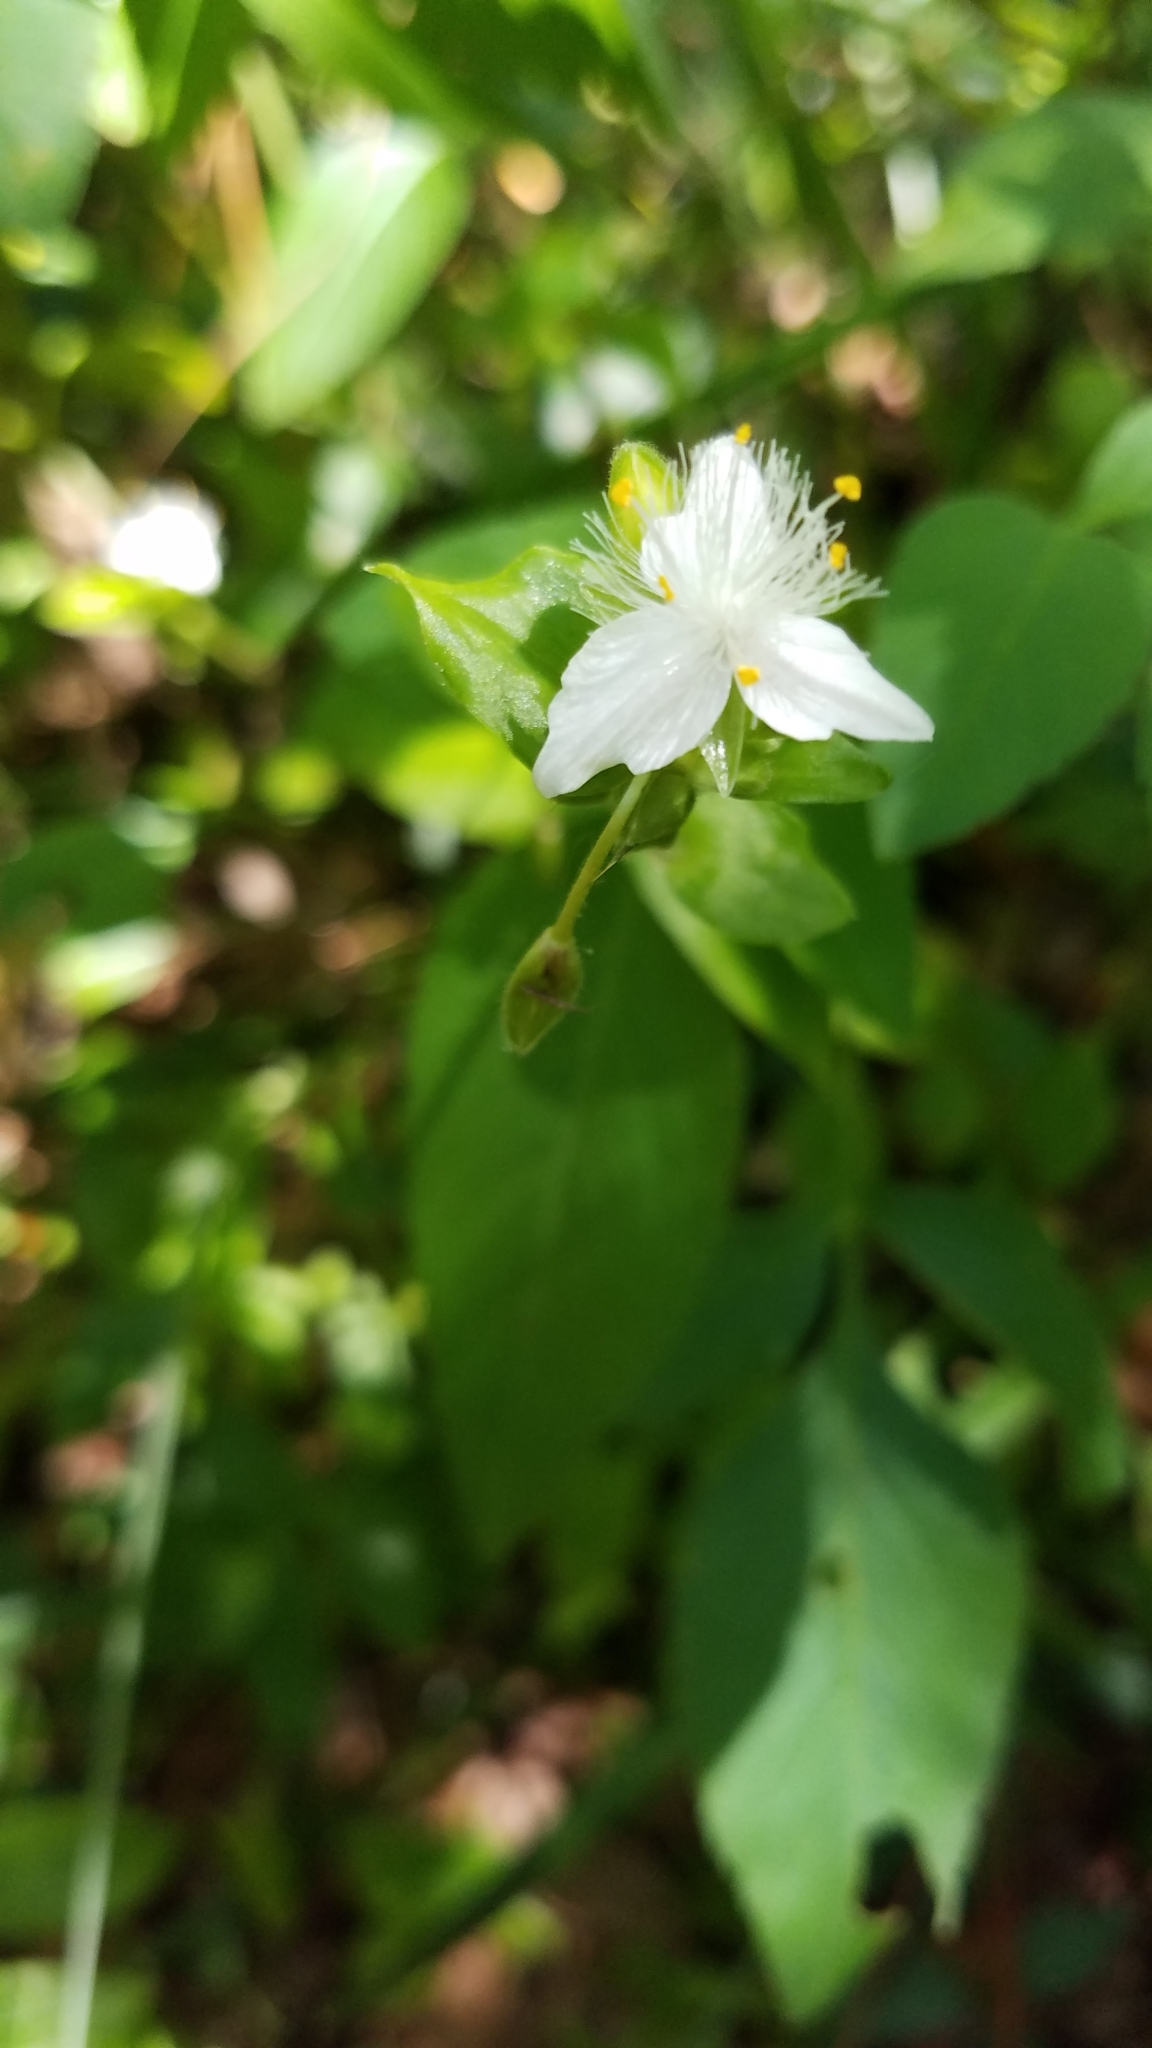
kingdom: Plantae
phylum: Tracheophyta
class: Liliopsida
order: Commelinales
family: Commelinaceae
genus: Tradescantia
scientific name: Tradescantia fluminensis
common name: Wandering-jew
